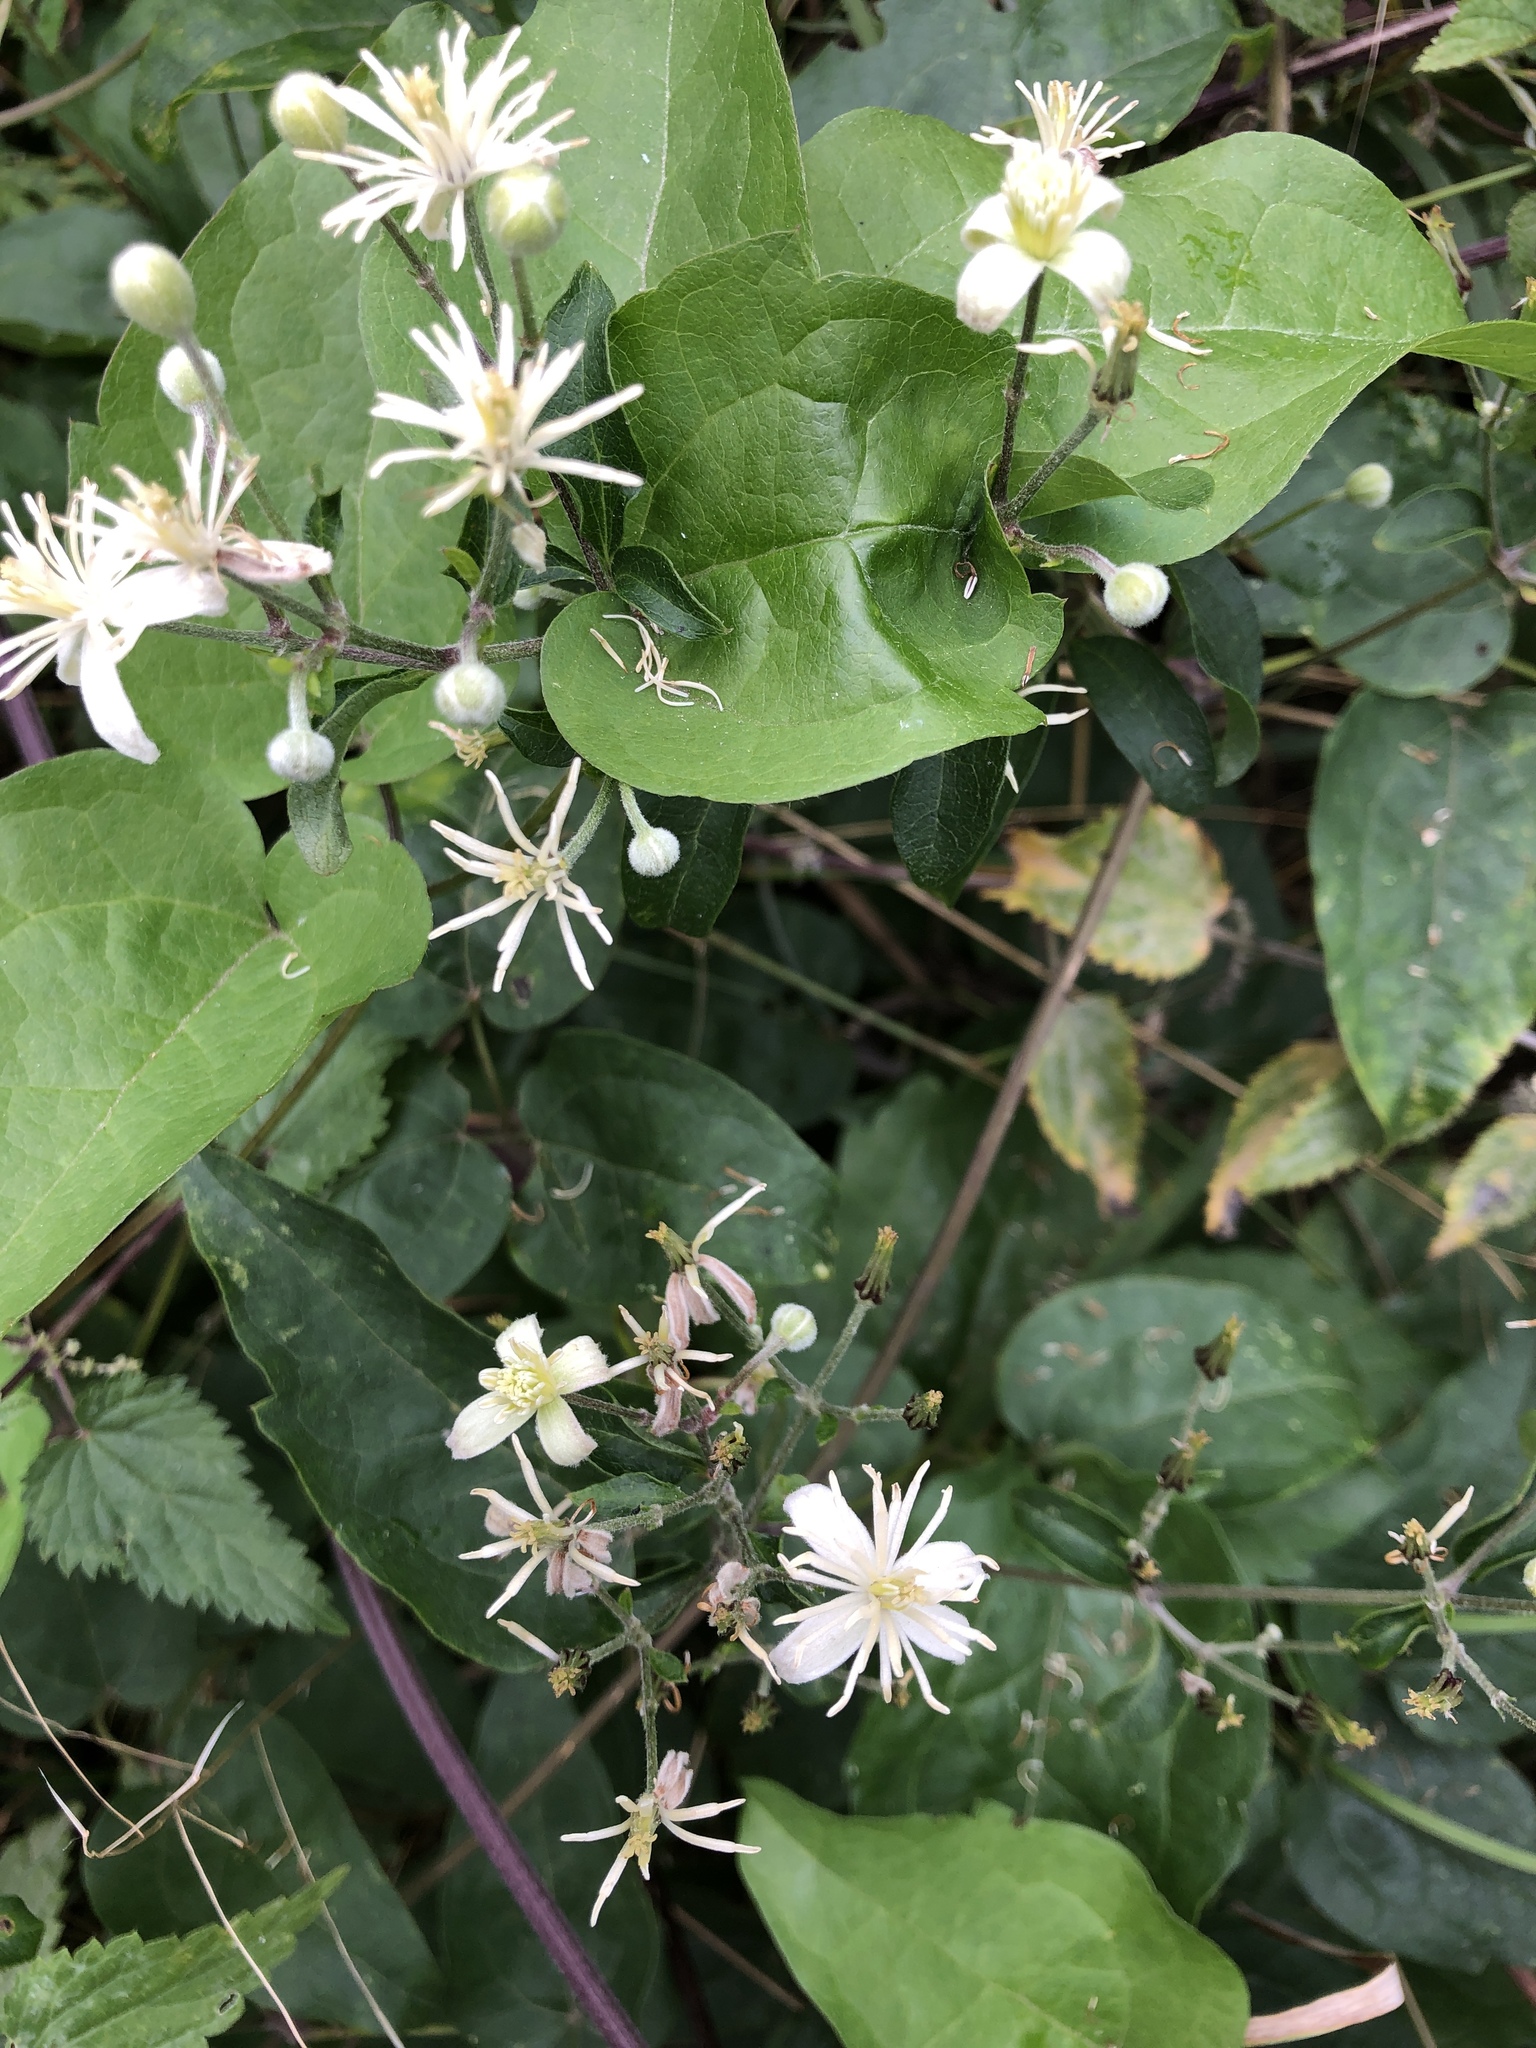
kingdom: Plantae
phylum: Tracheophyta
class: Magnoliopsida
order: Ranunculales
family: Ranunculaceae
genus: Clematis
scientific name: Clematis vitalba
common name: Evergreen clematis
